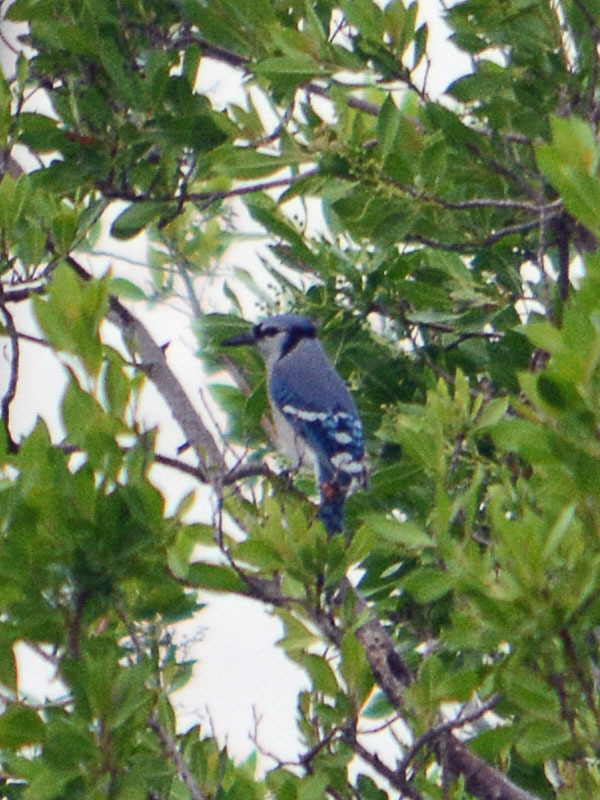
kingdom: Animalia
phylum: Chordata
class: Aves
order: Passeriformes
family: Corvidae
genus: Cyanocitta
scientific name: Cyanocitta cristata
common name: Blue jay
